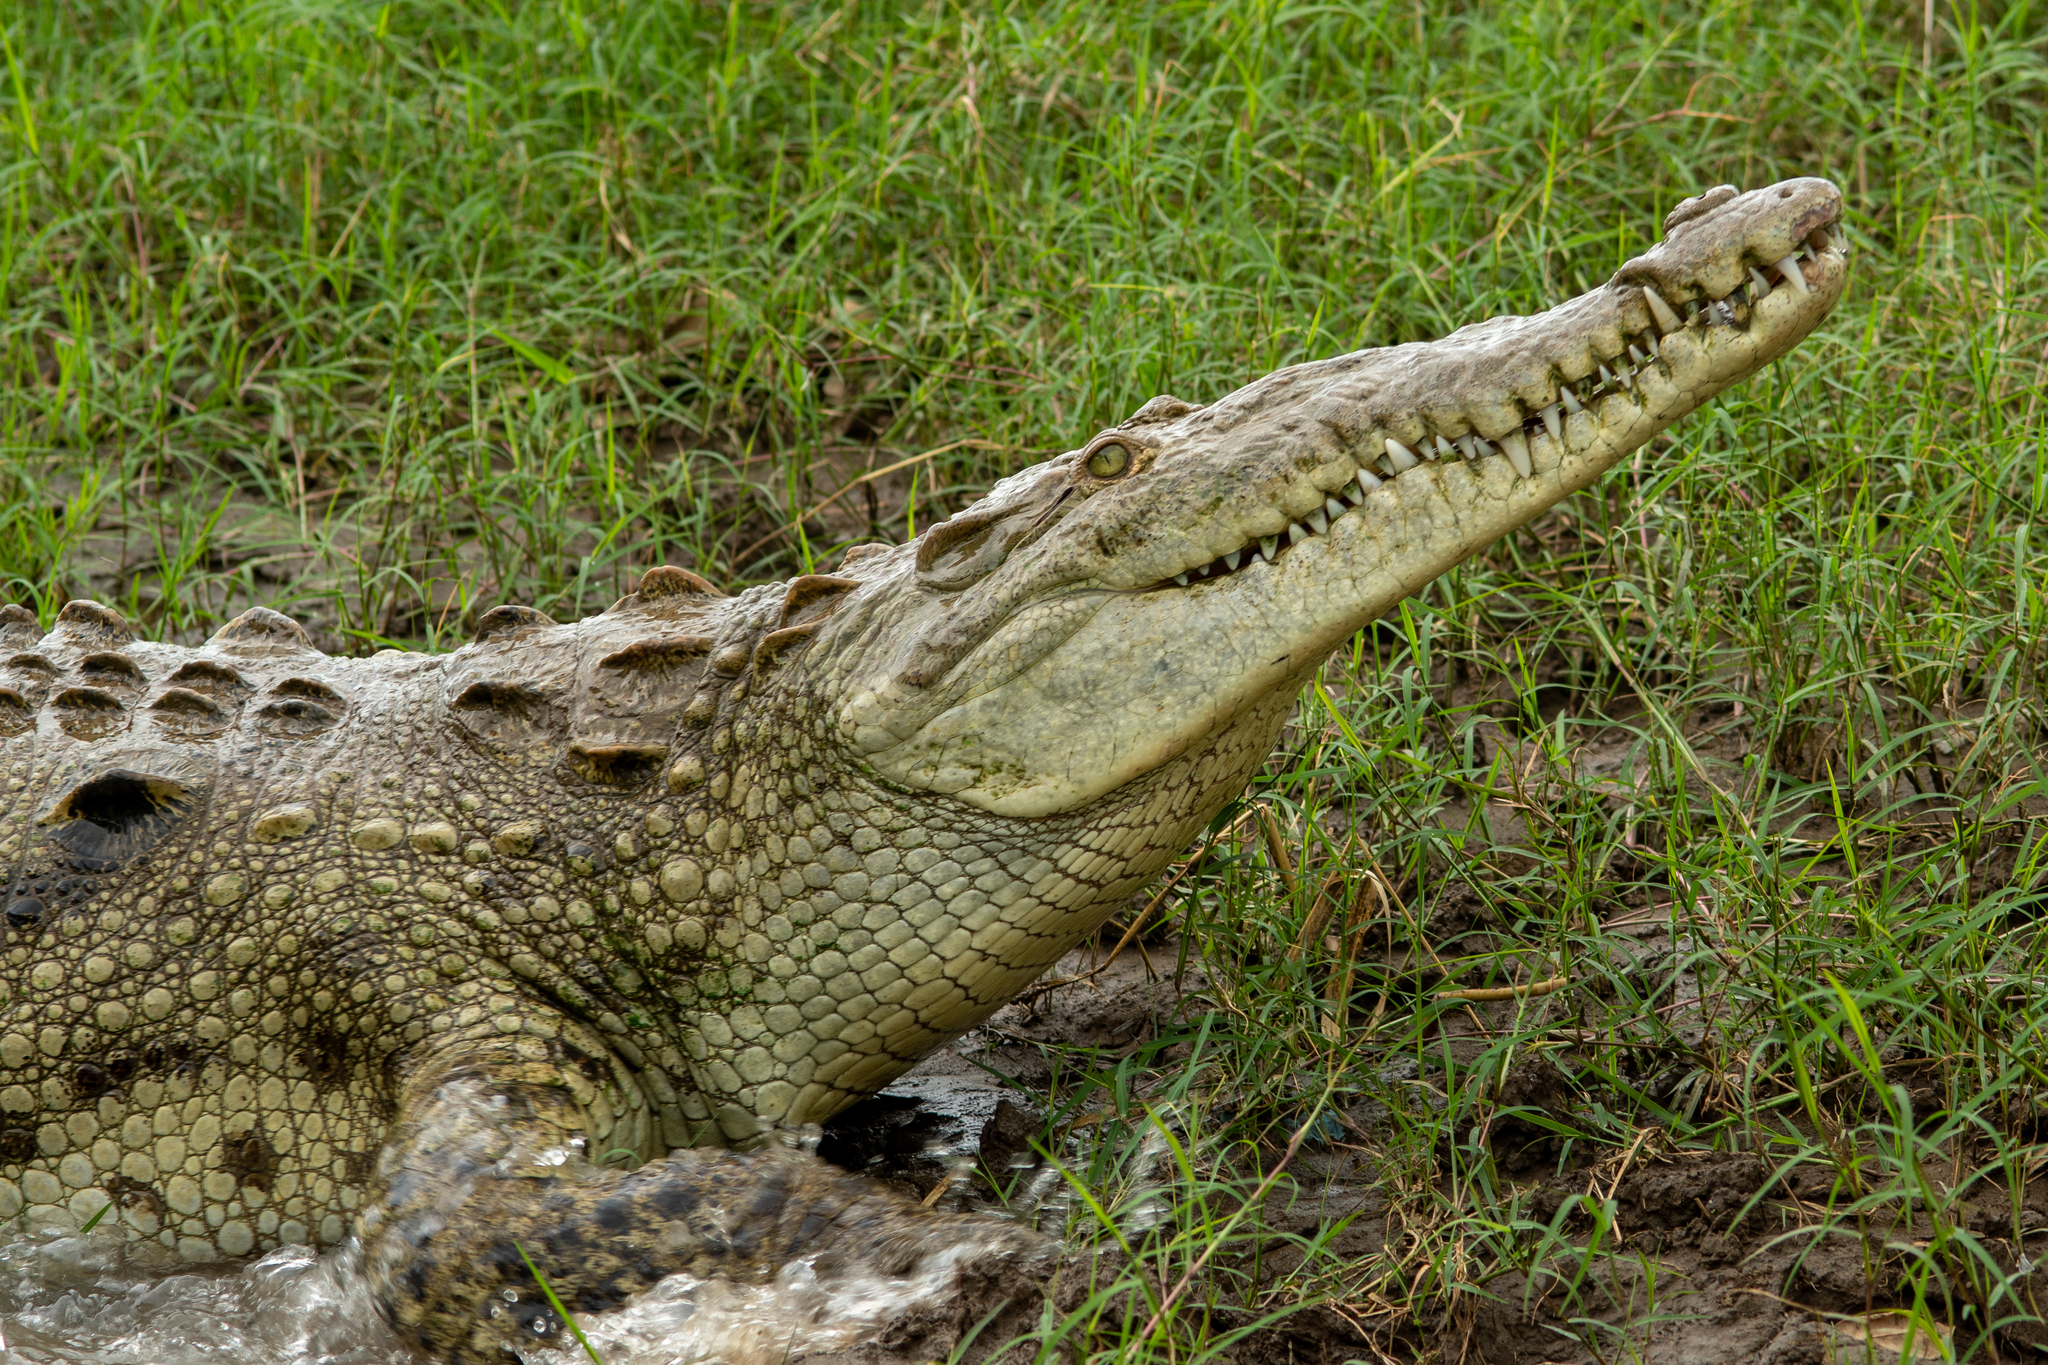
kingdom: Animalia
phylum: Chordata
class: Crocodylia
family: Crocodylidae
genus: Crocodylus
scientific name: Crocodylus acutus
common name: American crocodile
